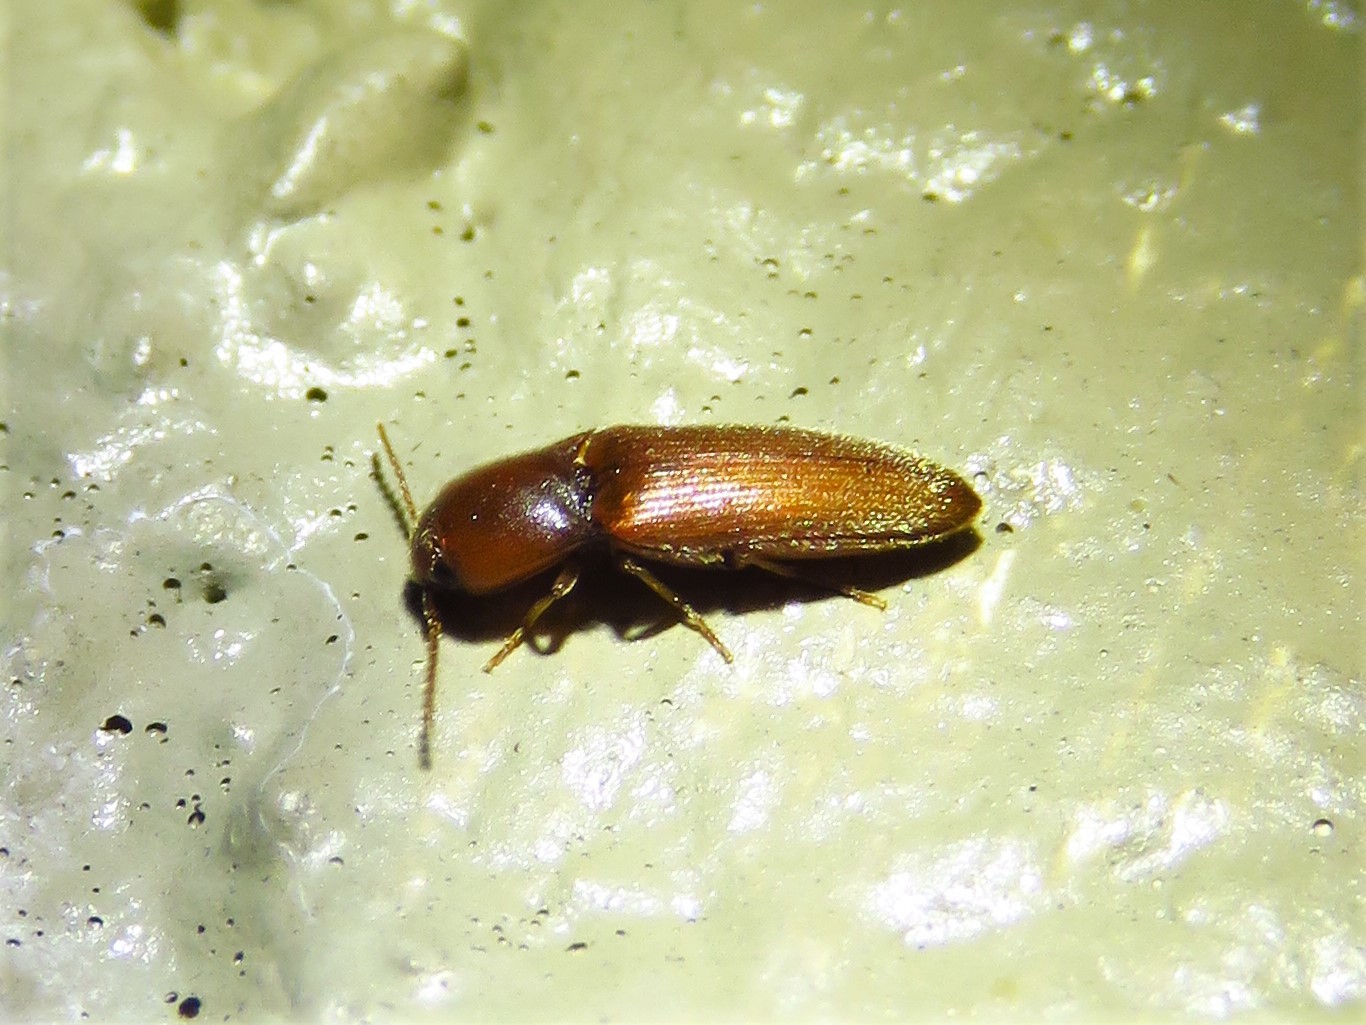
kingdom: Animalia
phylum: Arthropoda
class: Insecta
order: Coleoptera
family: Elateridae
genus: Glyphonyx
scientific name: Glyphonyx
